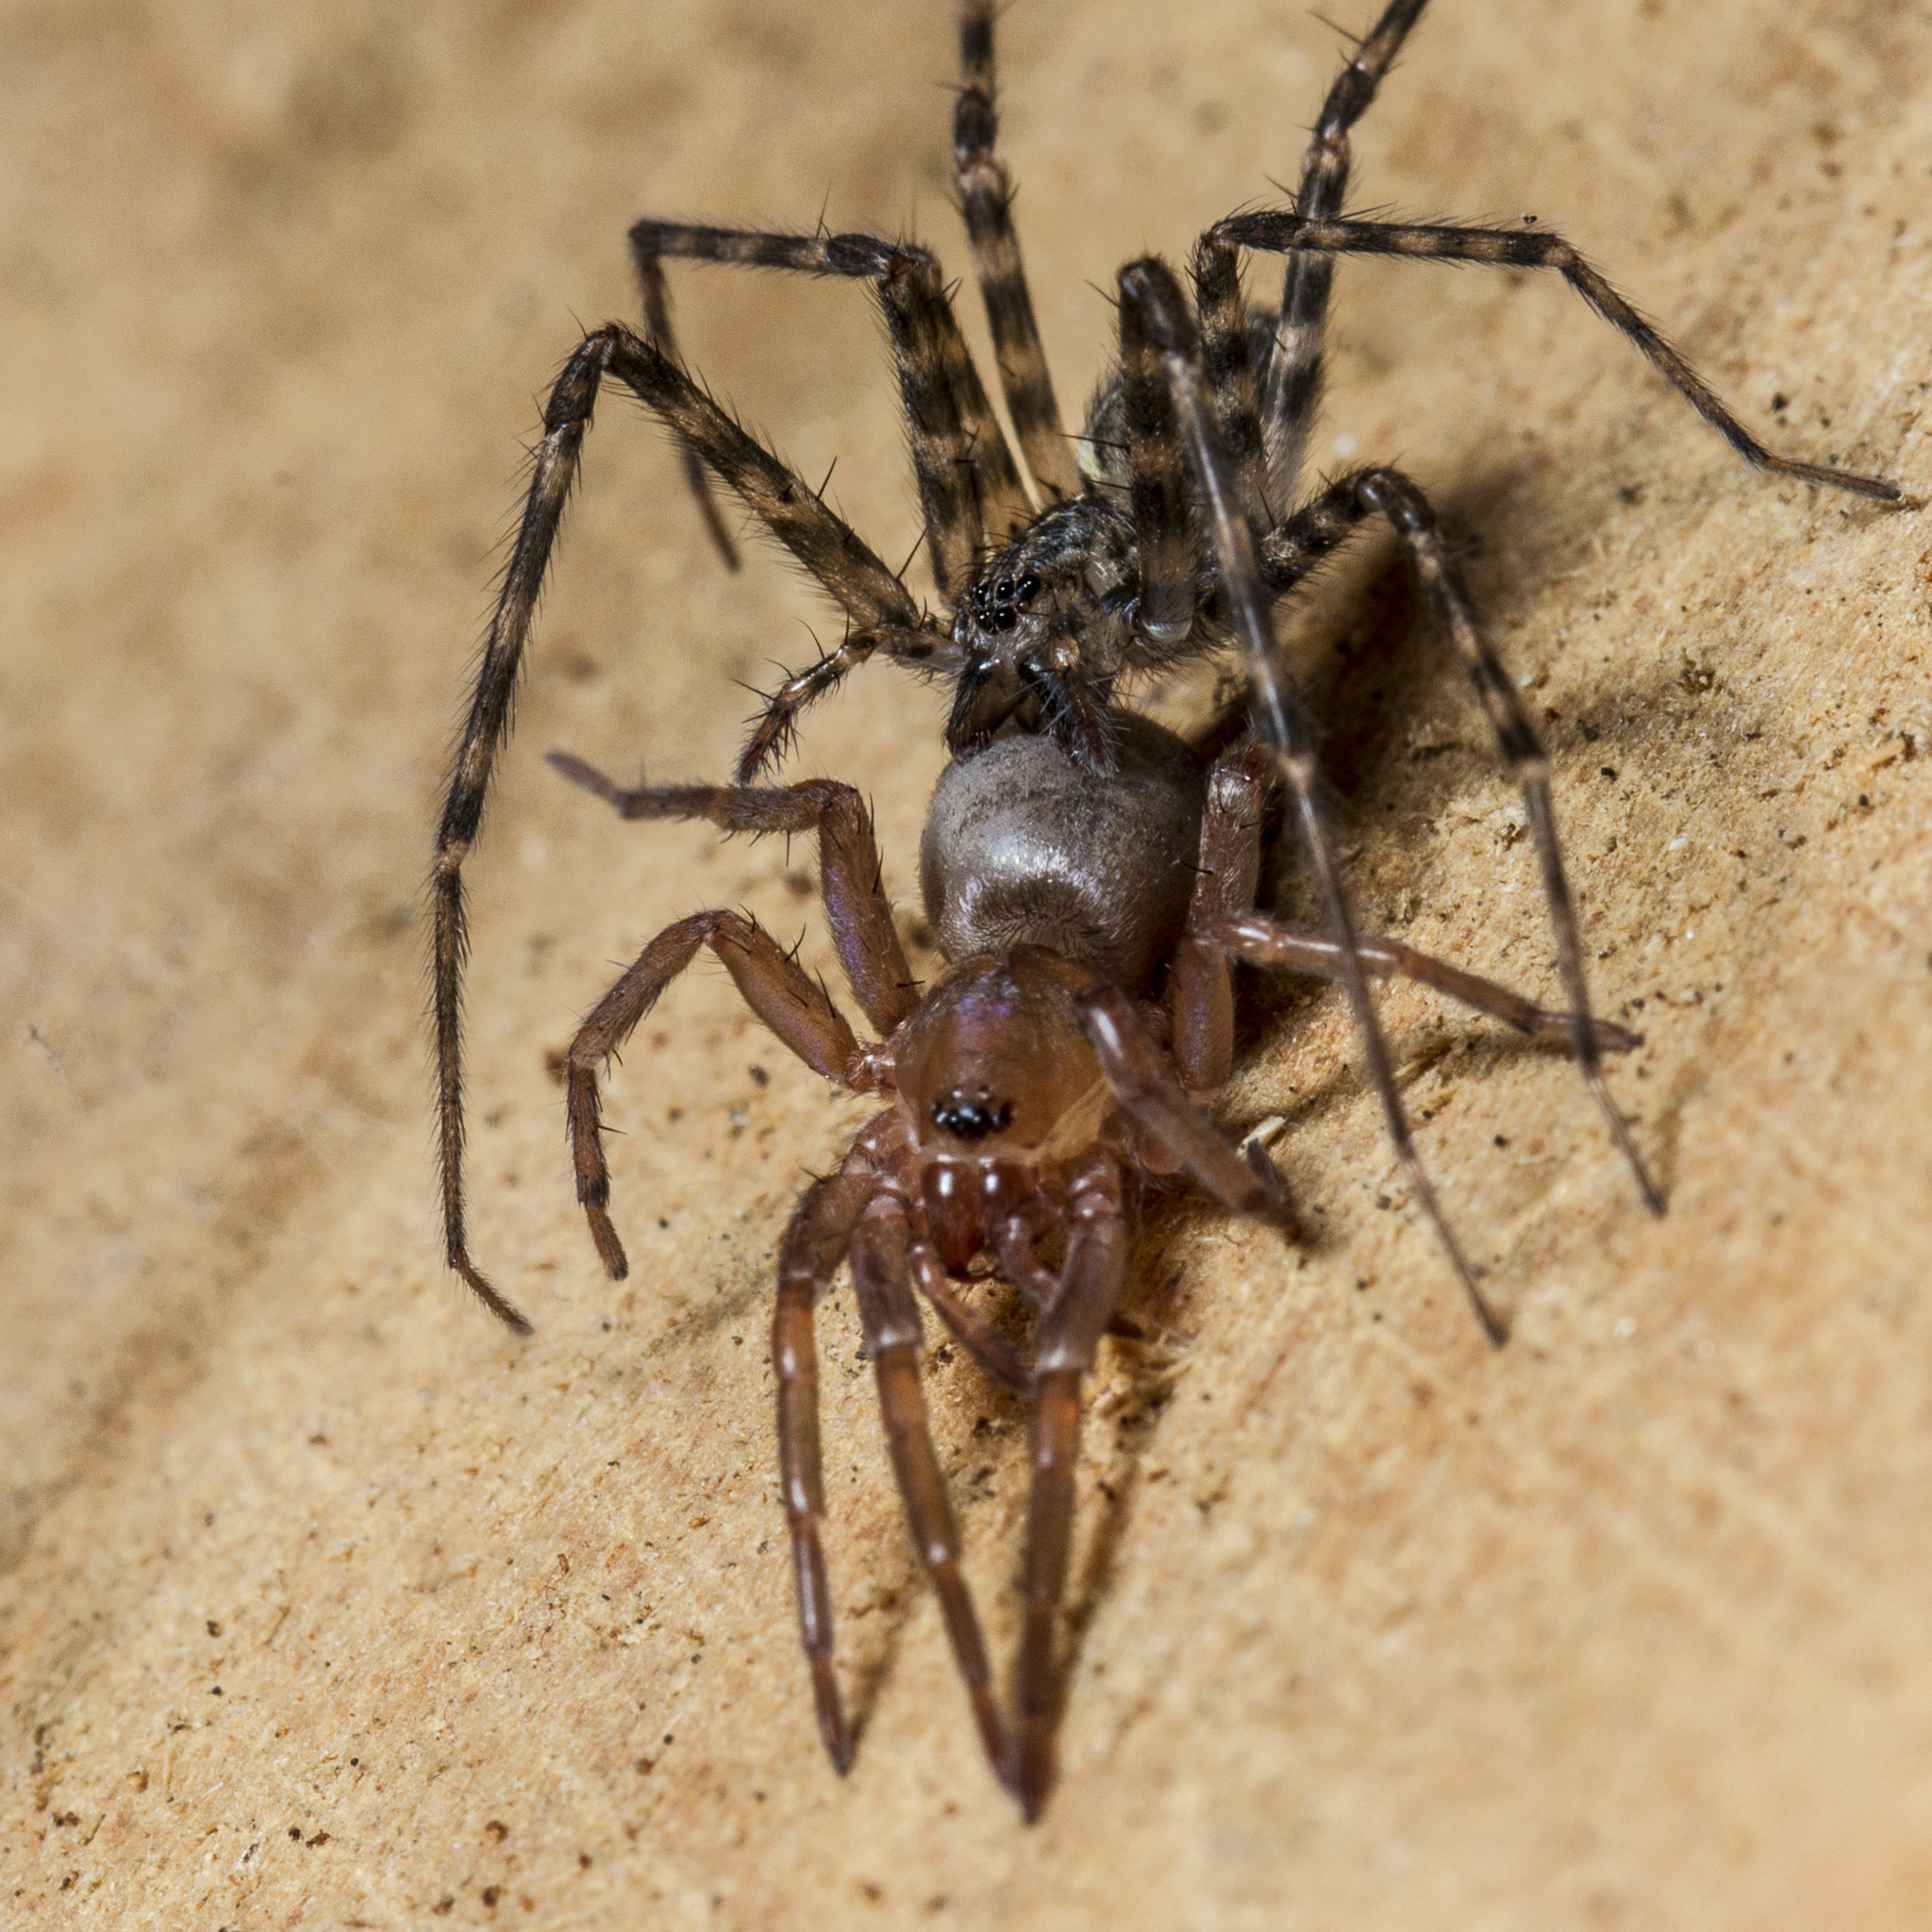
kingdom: Animalia
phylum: Arthropoda
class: Arachnida
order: Araneae
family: Stiphidiidae
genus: Stiphidion
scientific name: Stiphidion facetum
